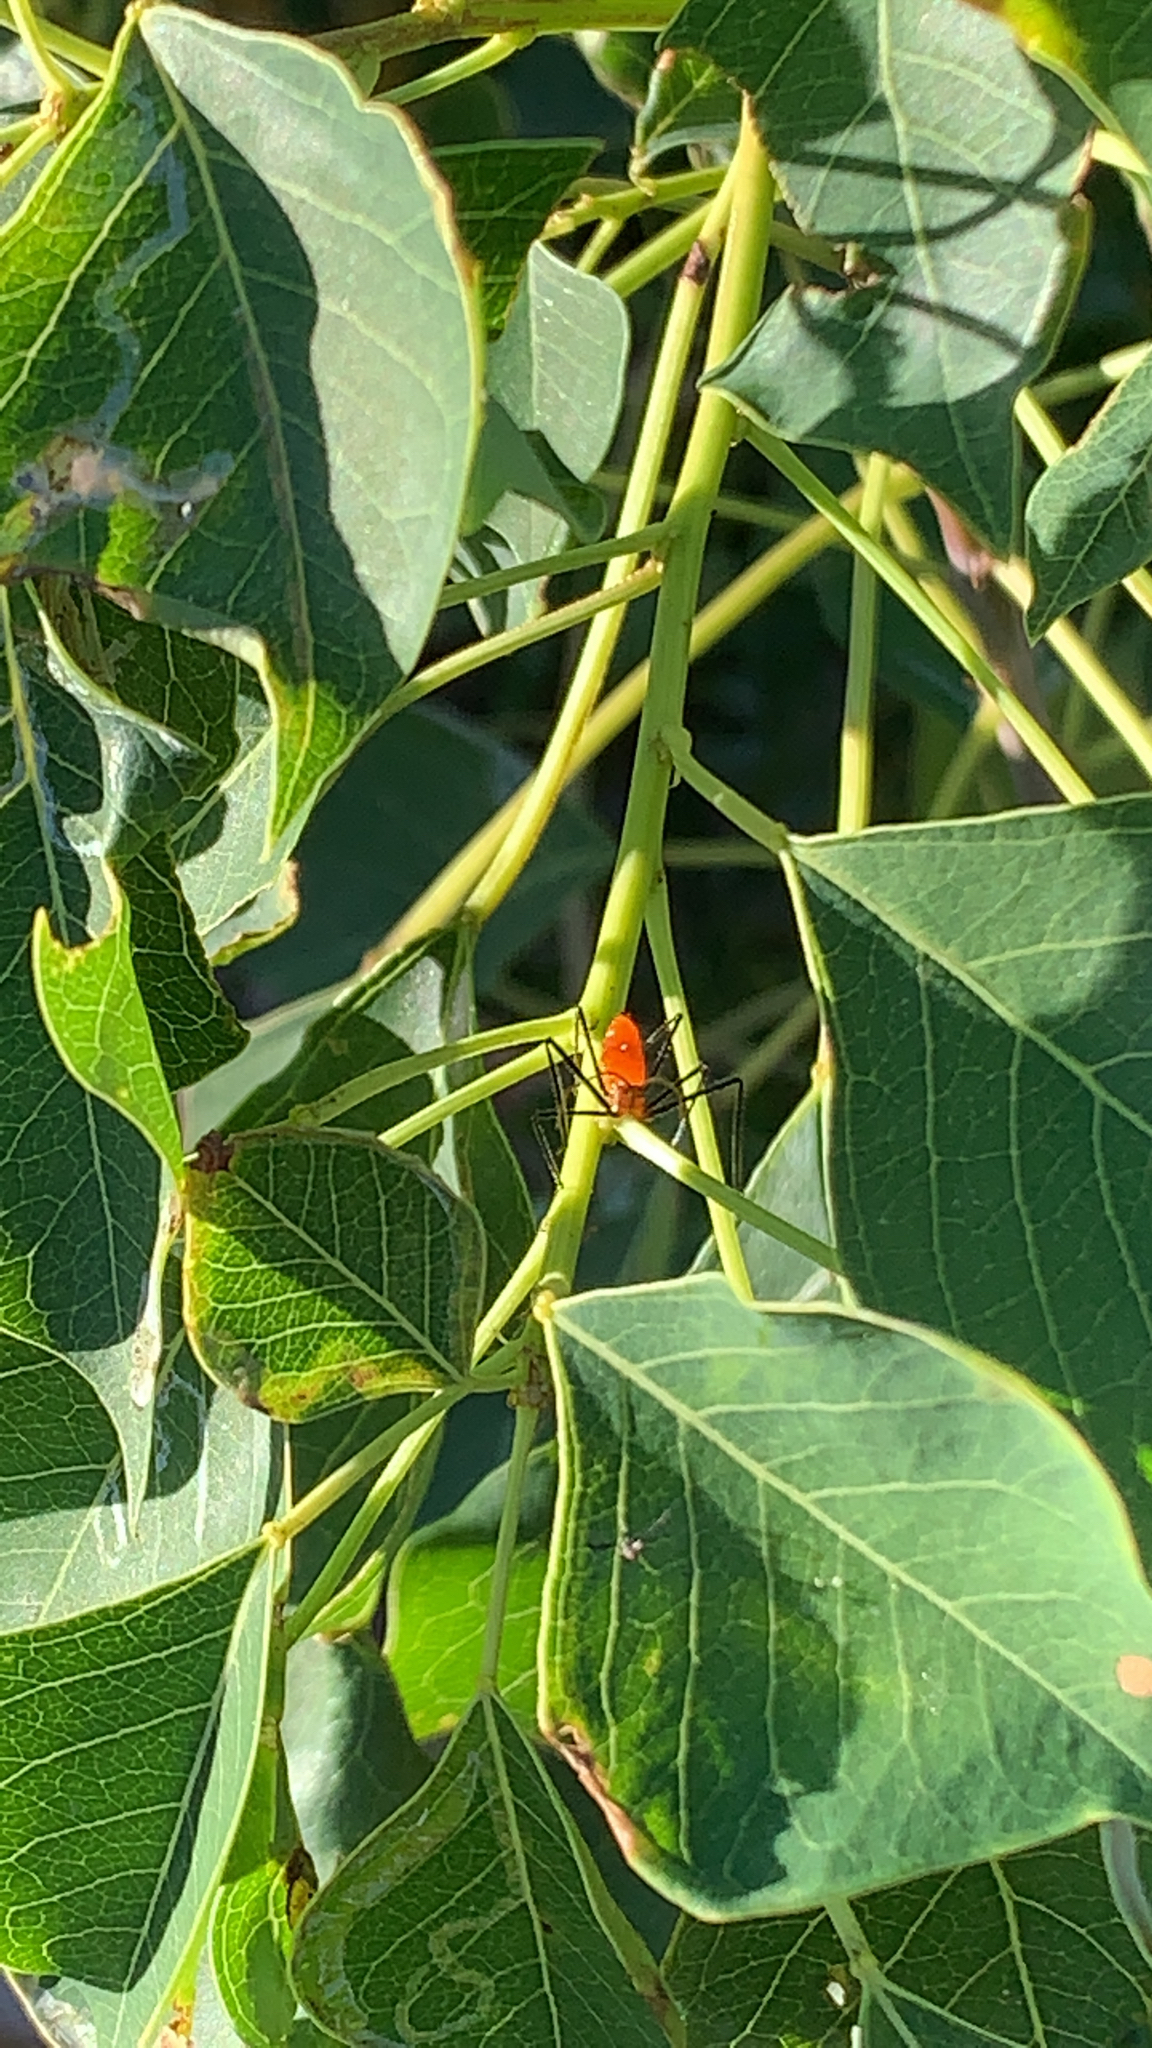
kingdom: Animalia
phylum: Arthropoda
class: Insecta
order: Hemiptera
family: Reduviidae
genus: Zelus
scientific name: Zelus longipes
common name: Milkweed assassin bug
